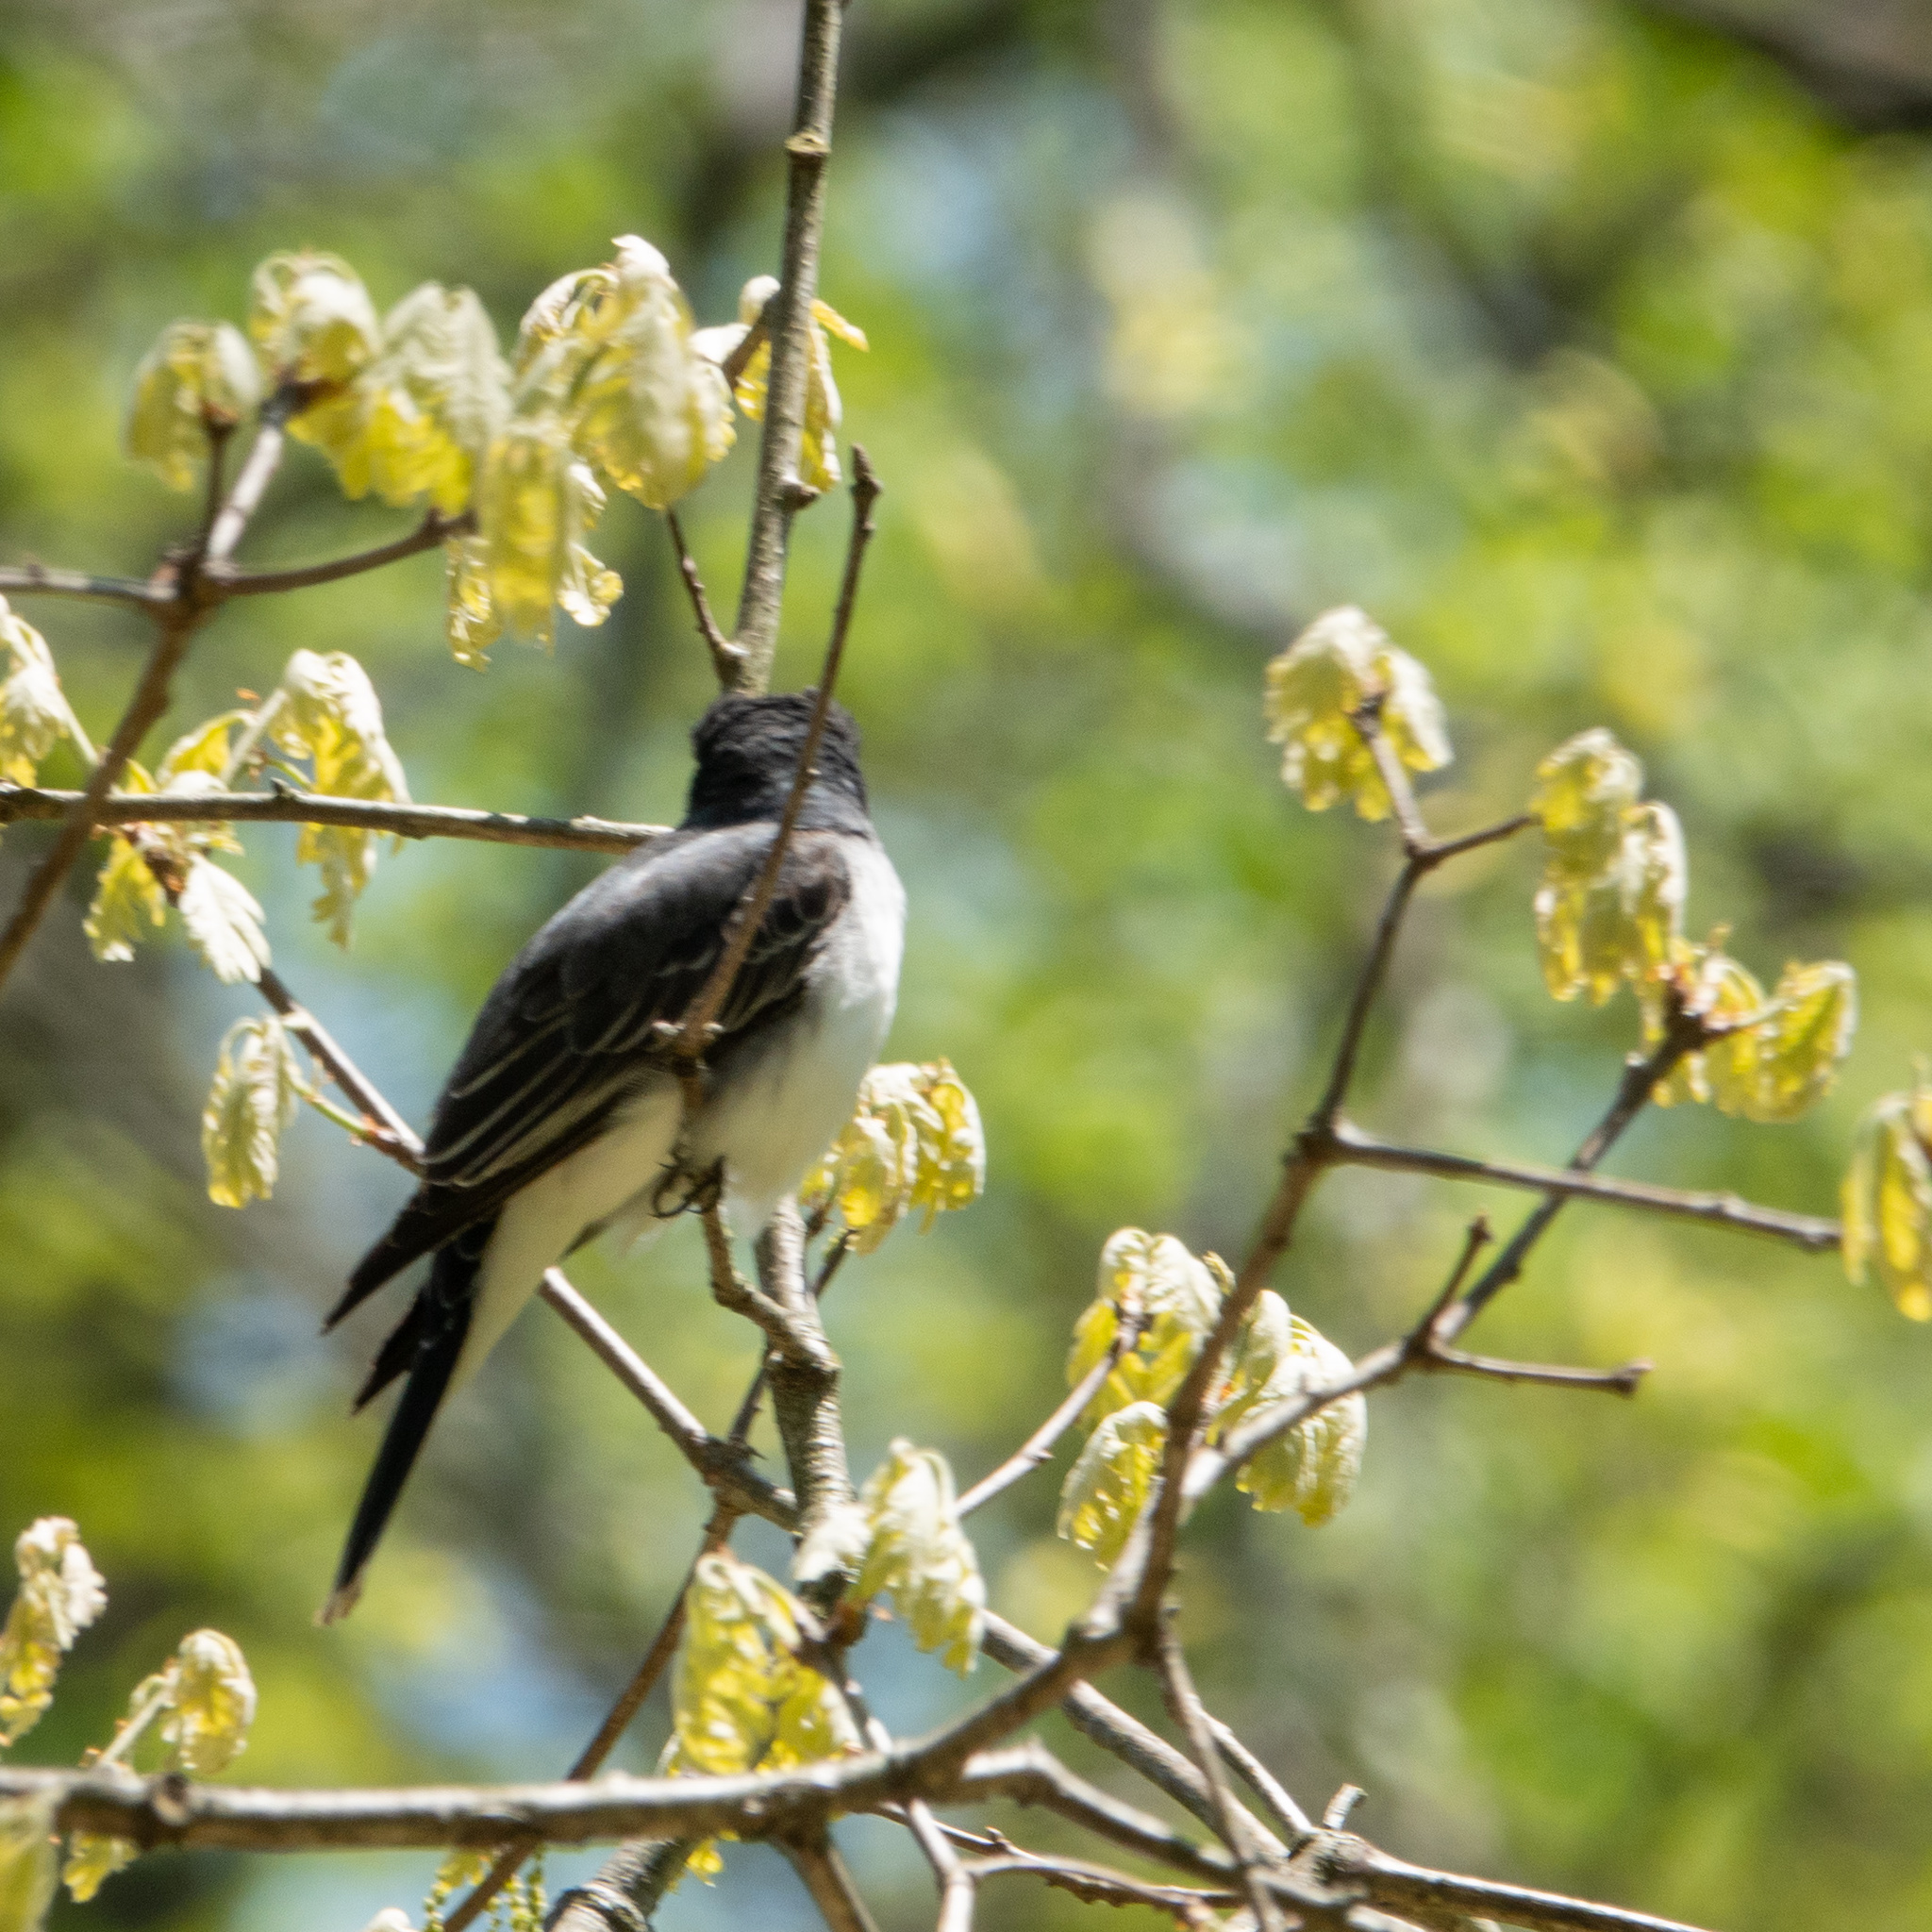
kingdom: Animalia
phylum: Chordata
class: Aves
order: Passeriformes
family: Tyrannidae
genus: Tyrannus
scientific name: Tyrannus tyrannus
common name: Eastern kingbird
